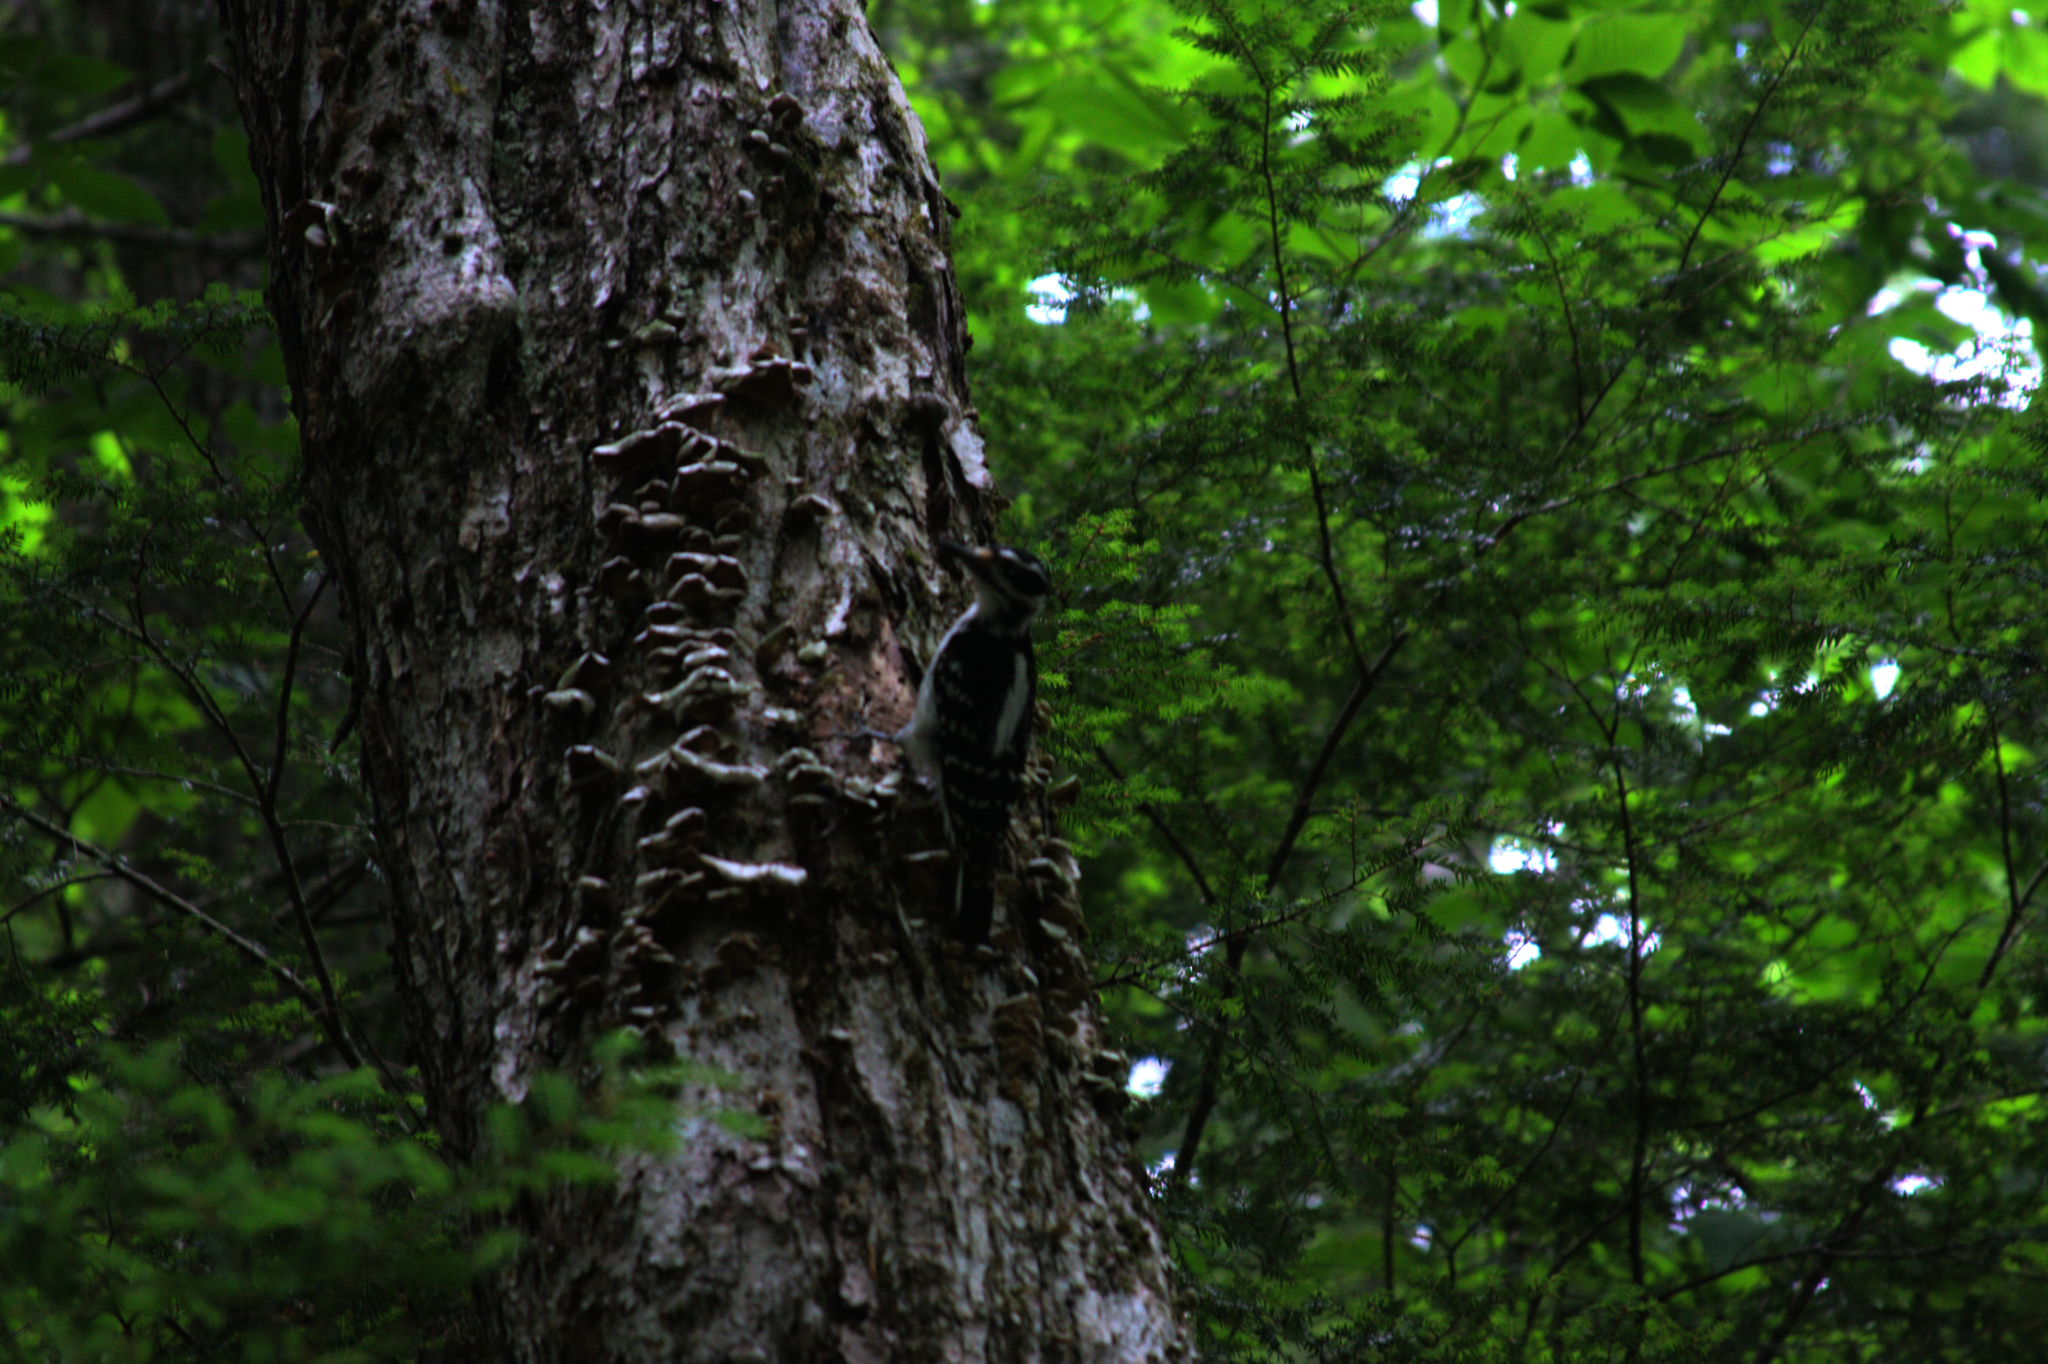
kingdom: Animalia
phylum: Chordata
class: Aves
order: Piciformes
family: Picidae
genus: Leuconotopicus
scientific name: Leuconotopicus villosus
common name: Hairy woodpecker
